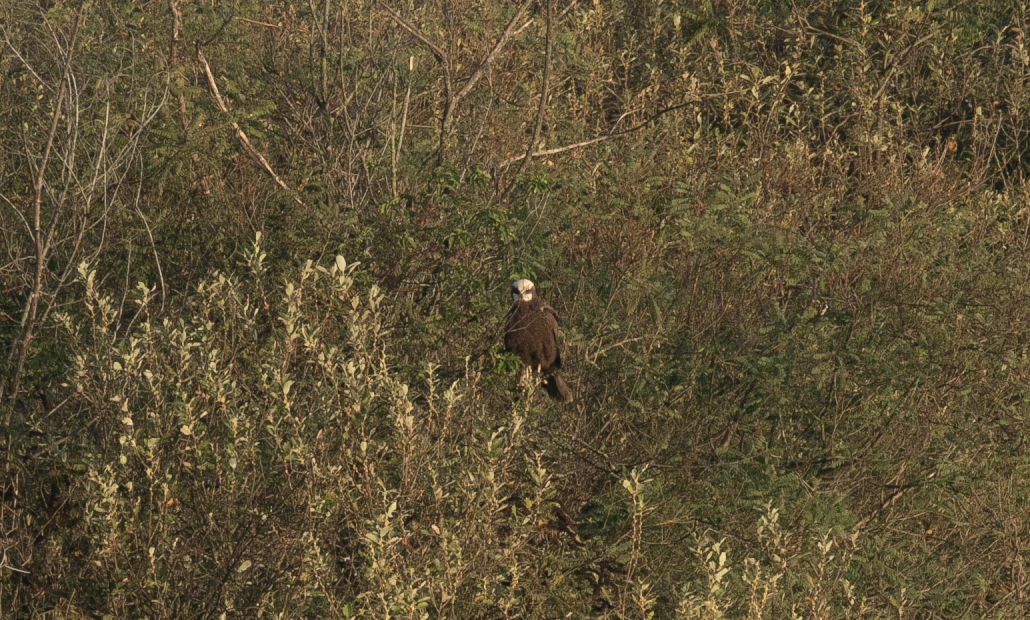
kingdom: Animalia
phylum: Chordata
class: Aves
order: Accipitriformes
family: Accipitridae
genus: Circus
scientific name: Circus aeruginosus
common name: Western marsh harrier
